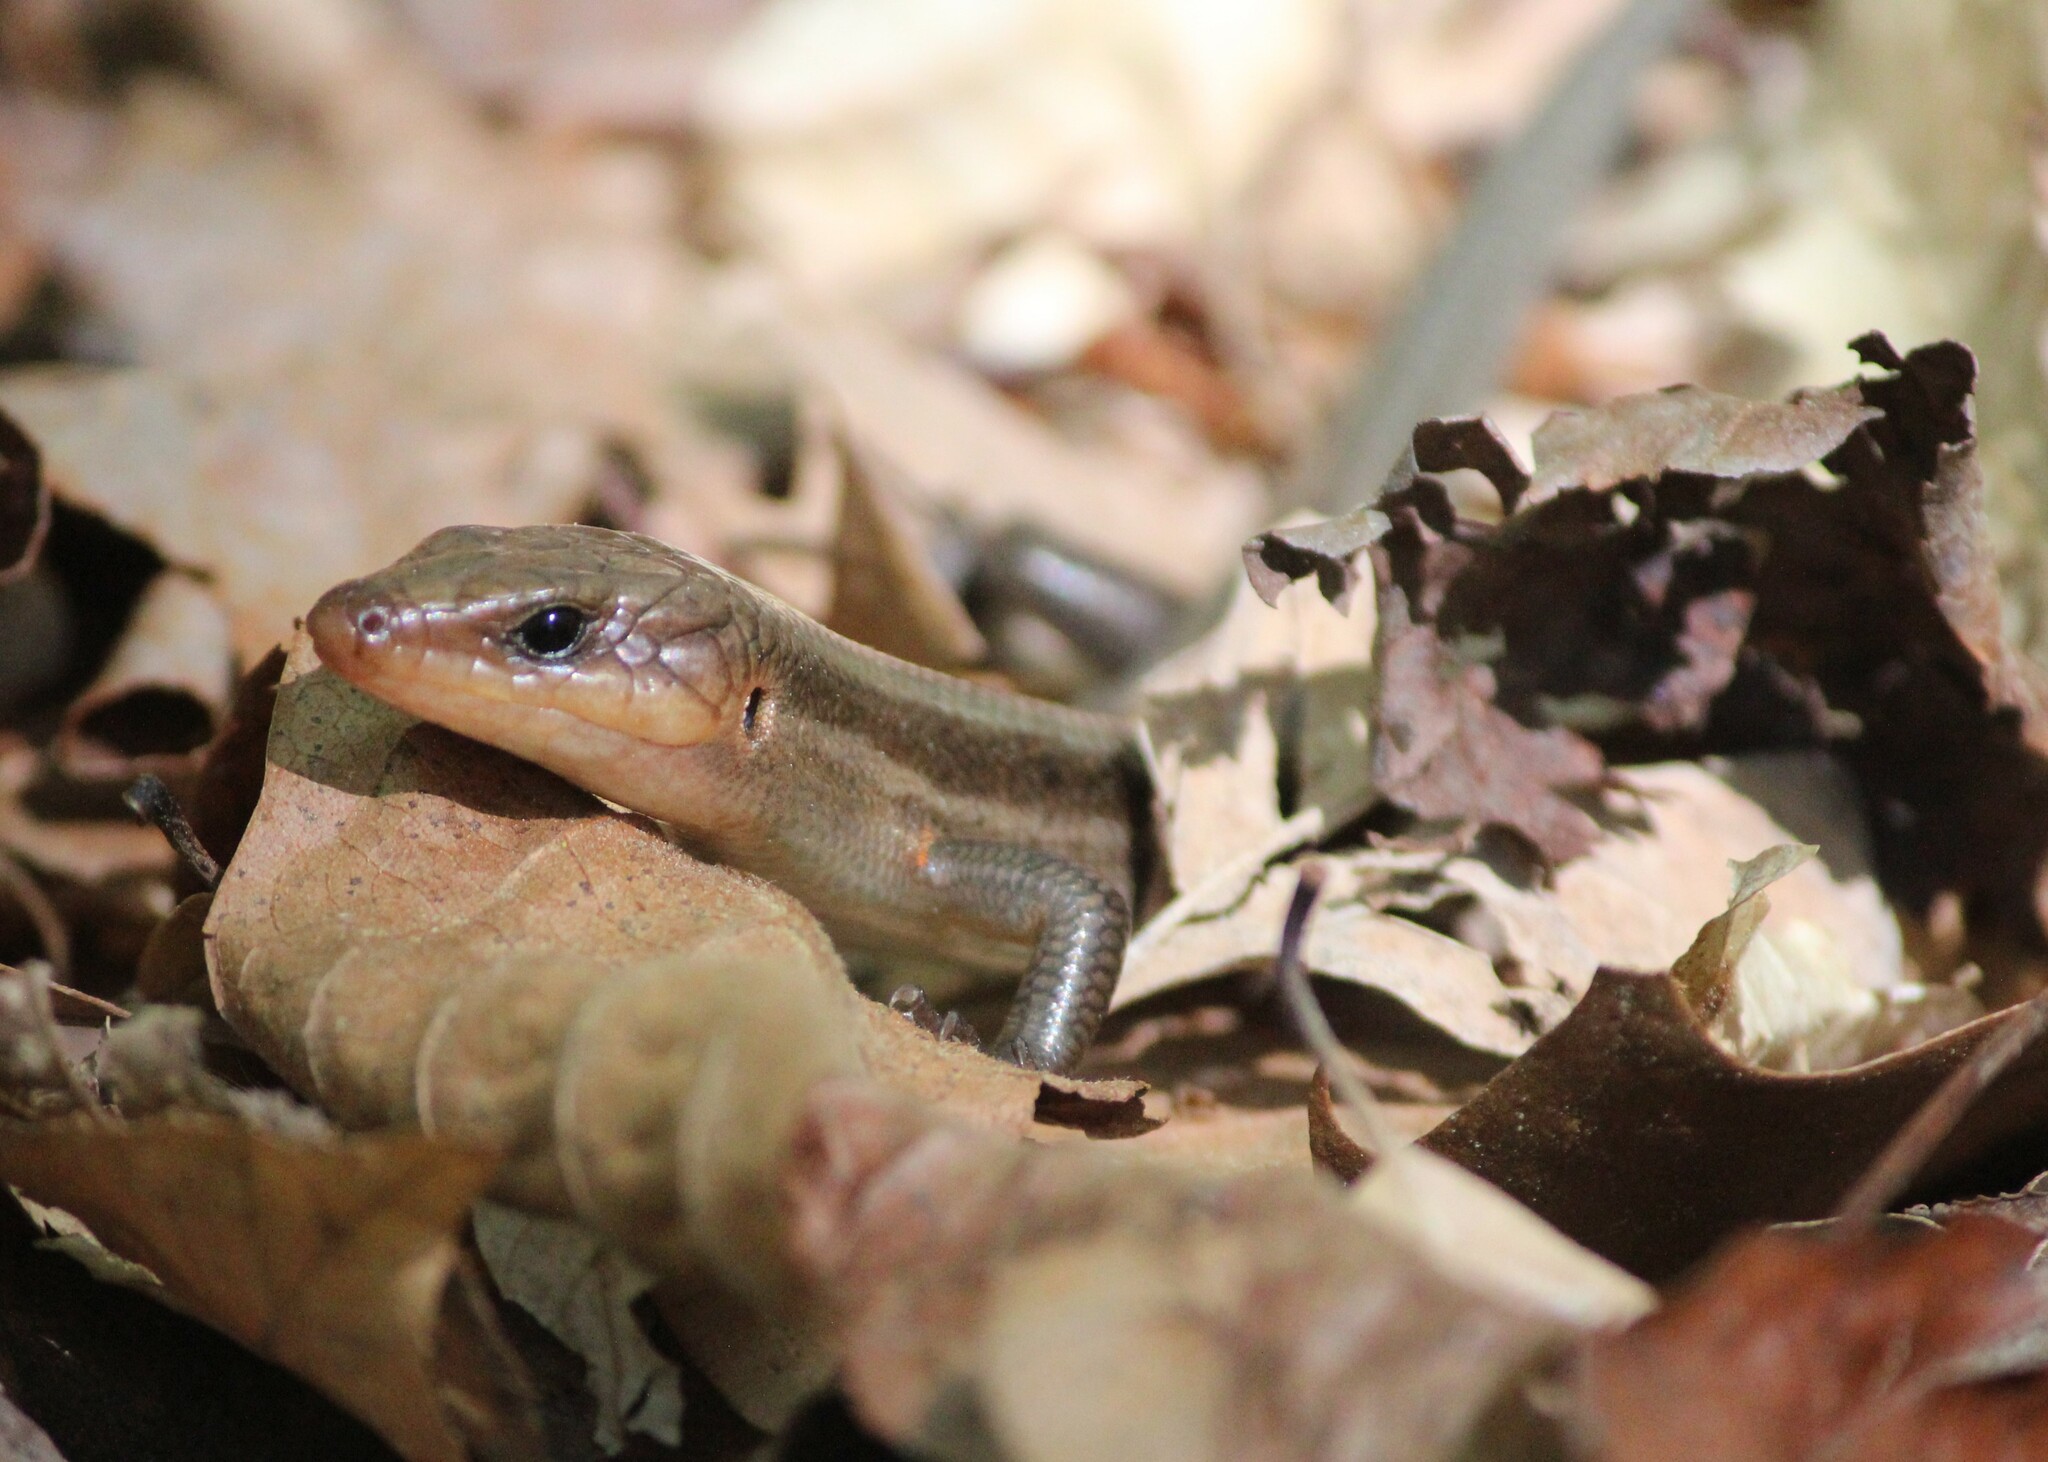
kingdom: Animalia
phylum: Chordata
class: Squamata
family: Scincidae
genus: Plestiodon
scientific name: Plestiodon fasciatus
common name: Five-lined skink
